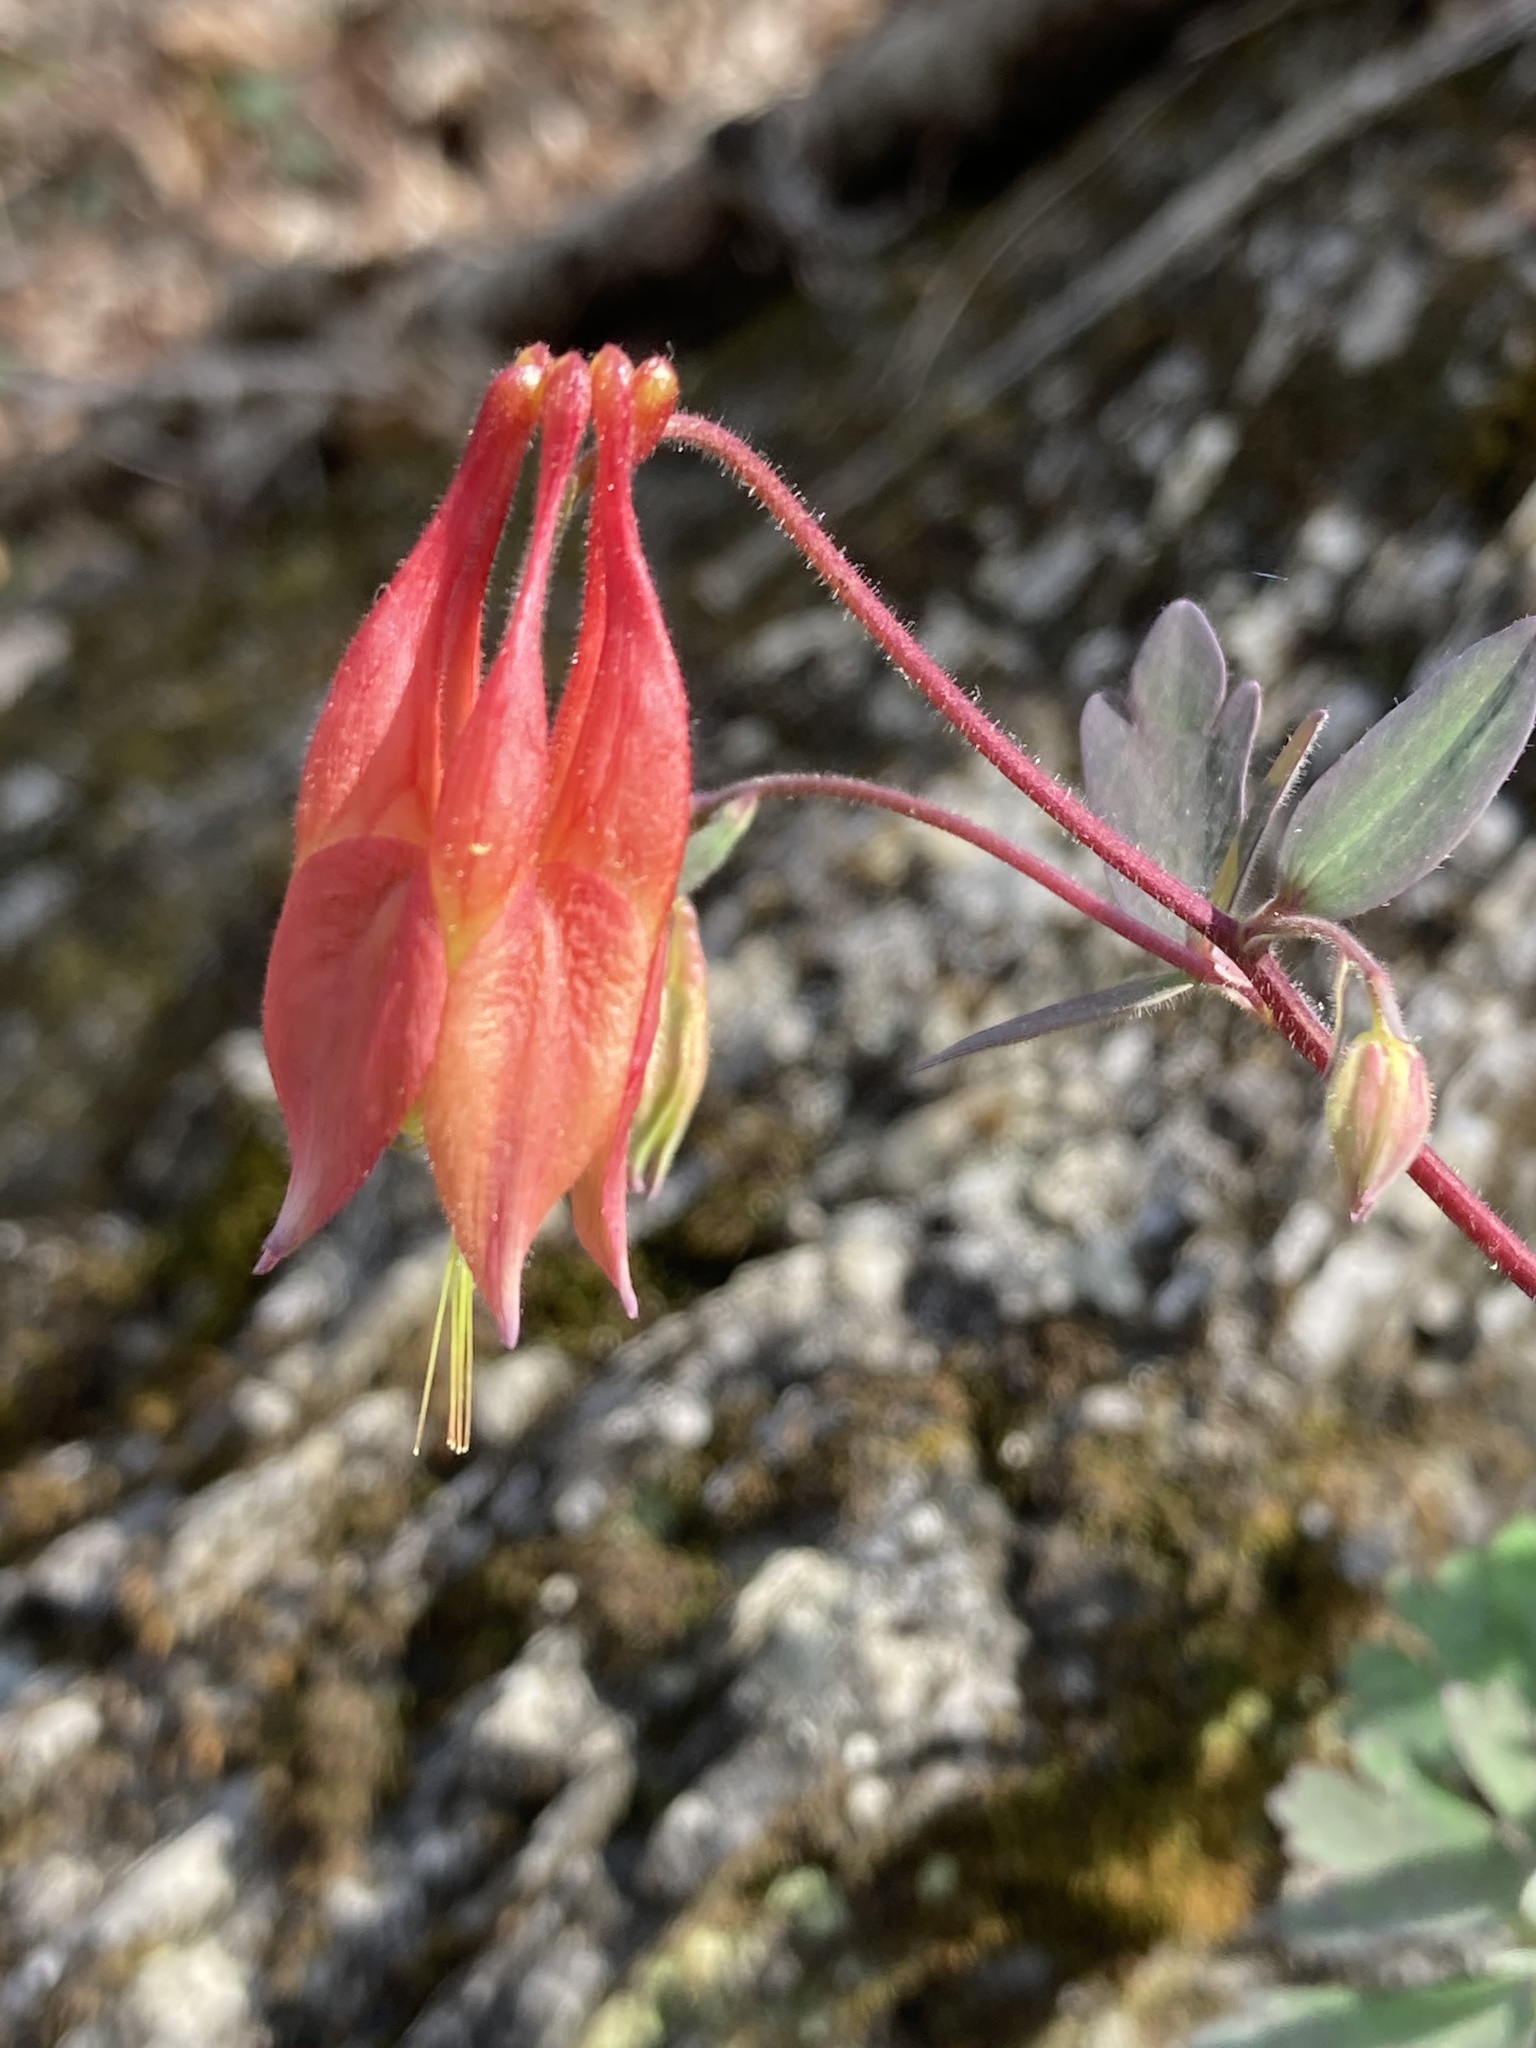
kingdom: Plantae
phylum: Tracheophyta
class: Magnoliopsida
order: Ranunculales
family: Ranunculaceae
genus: Aquilegia
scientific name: Aquilegia canadensis
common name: American columbine
